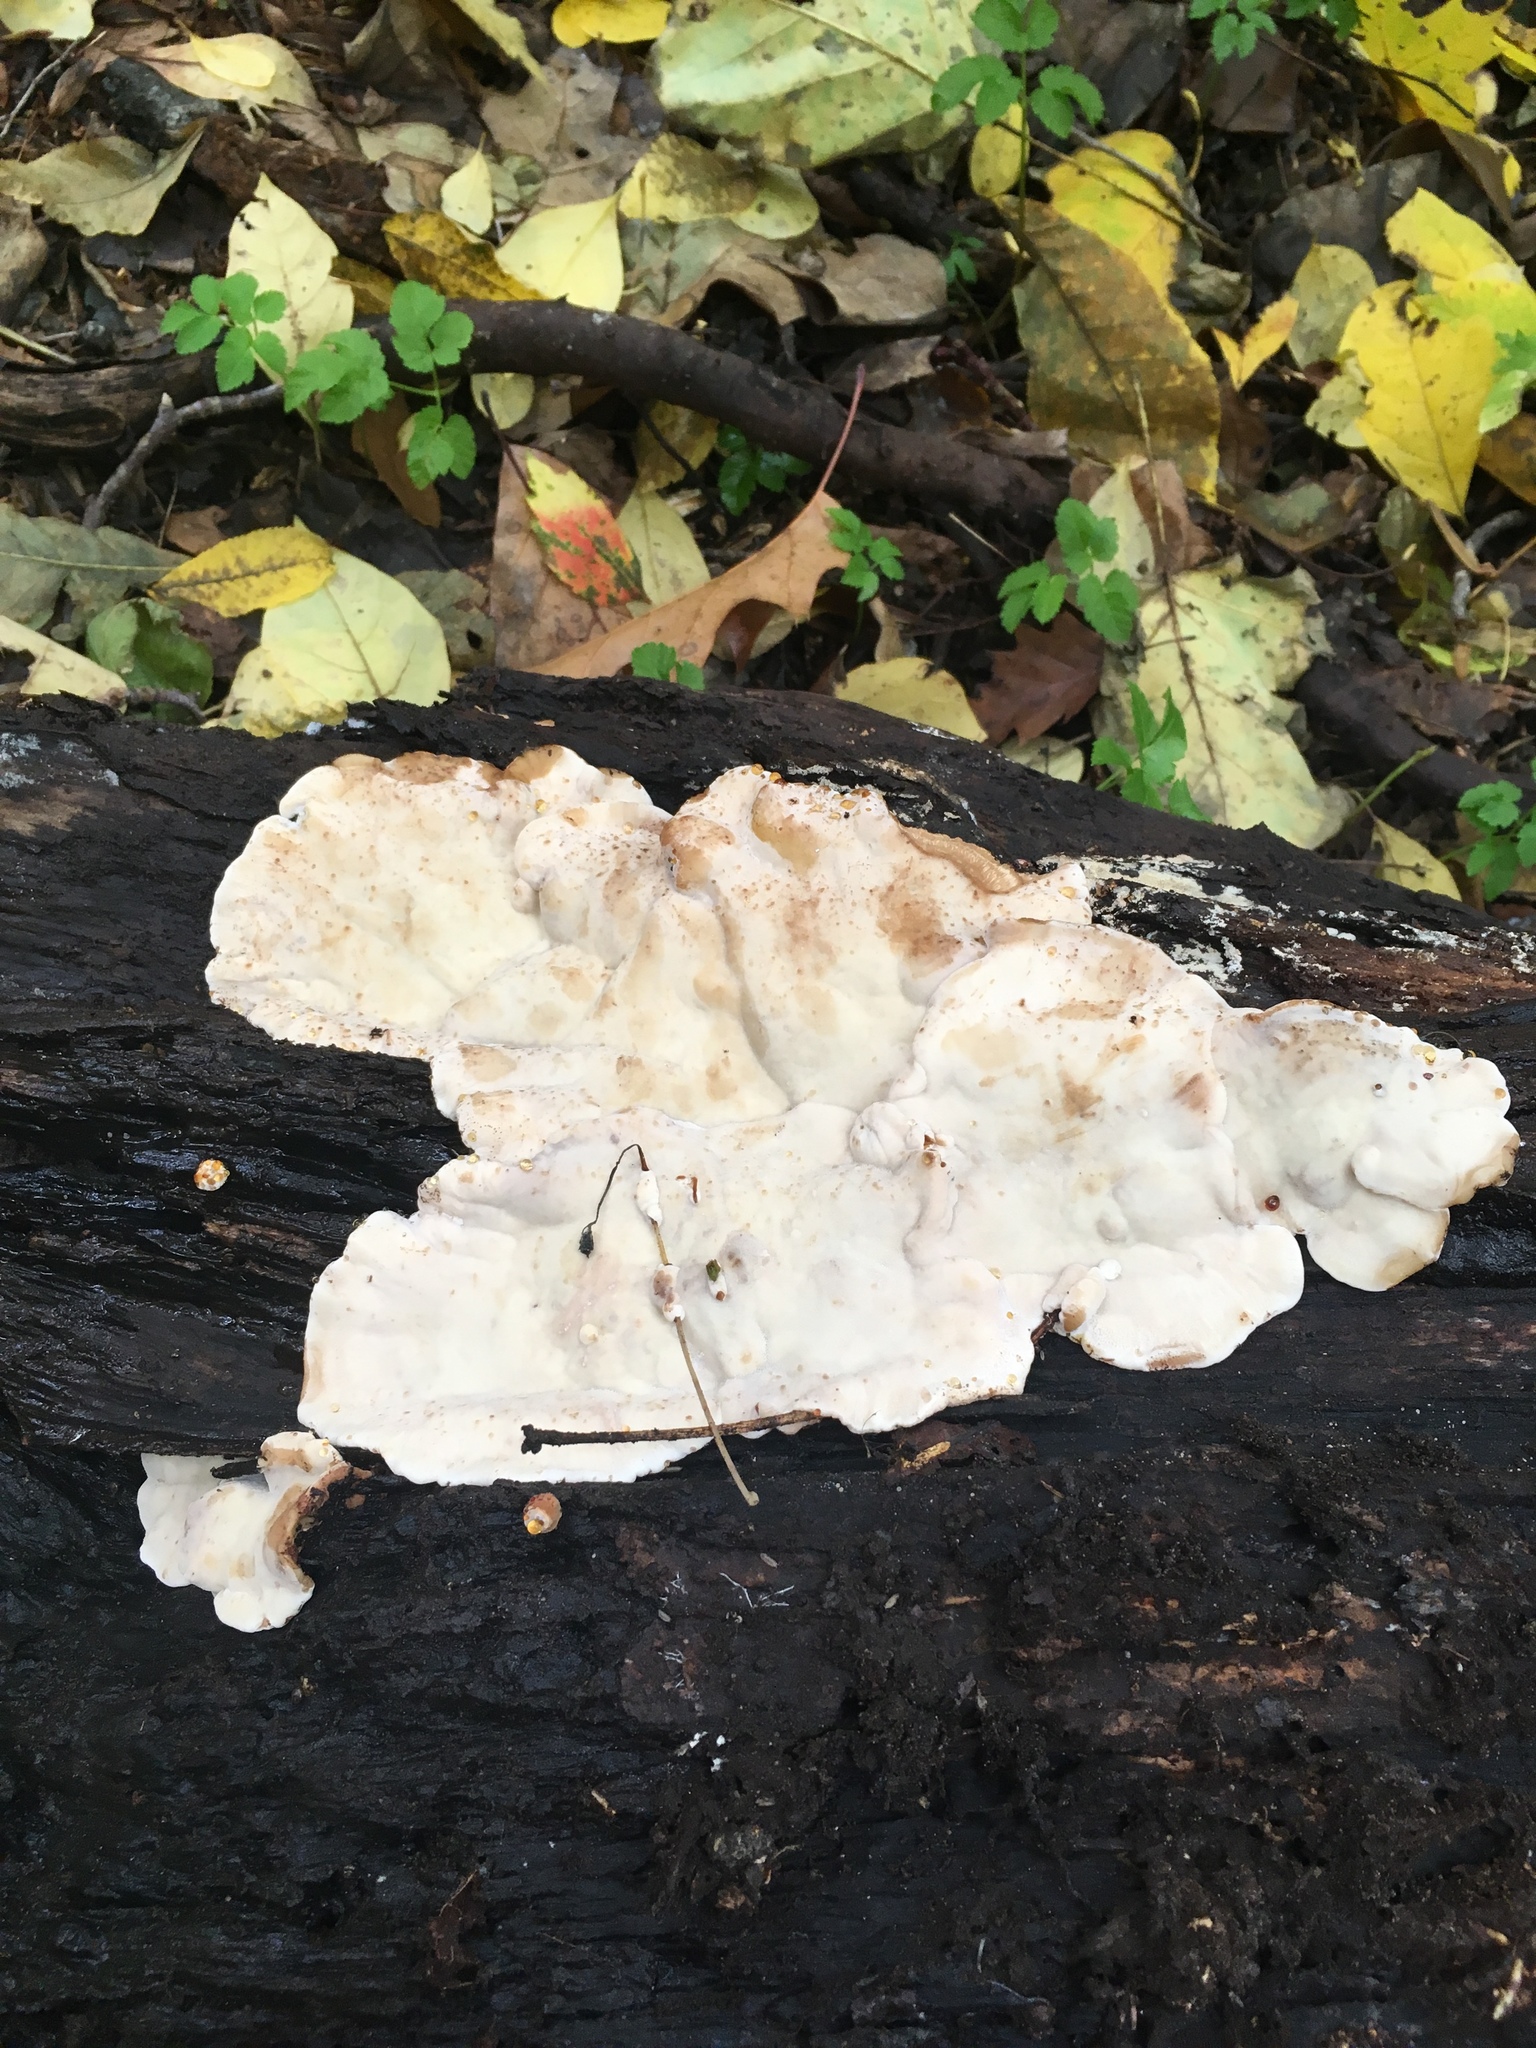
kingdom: Fungi
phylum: Basidiomycota
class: Agaricomycetes
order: Polyporales
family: Ischnodermataceae
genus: Ischnoderma
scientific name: Ischnoderma resinosum
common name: Resinous polypore
